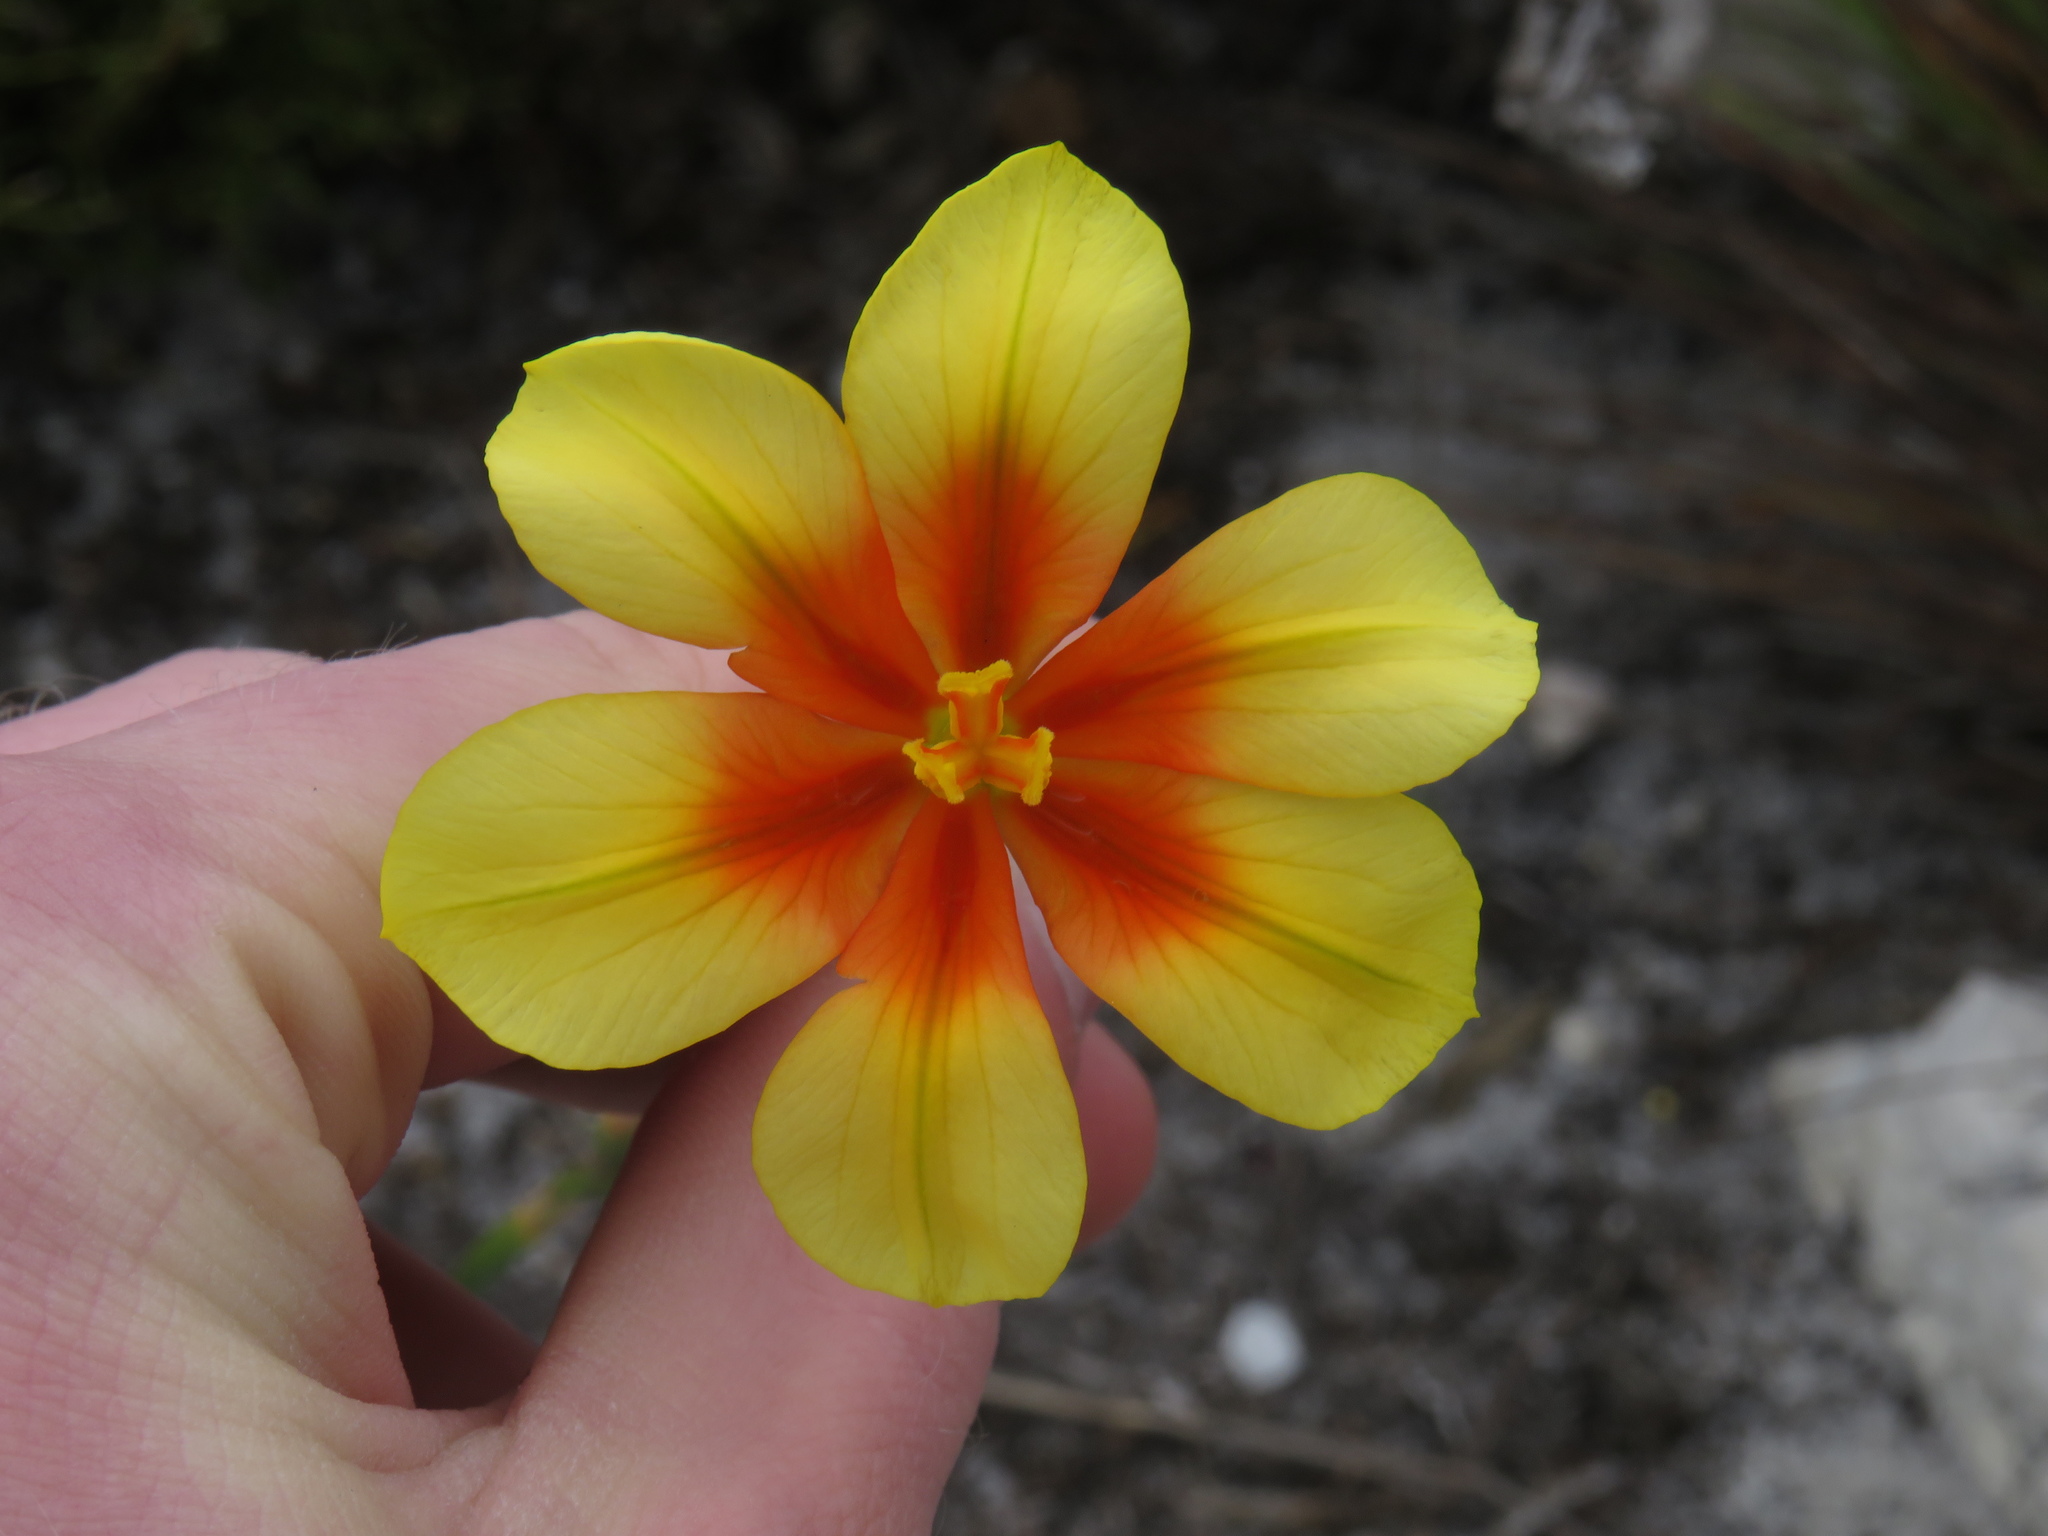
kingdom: Plantae
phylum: Tracheophyta
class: Liliopsida
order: Asparagales
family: Iridaceae
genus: Moraea
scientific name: Moraea ochroleuca
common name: Red tulp
